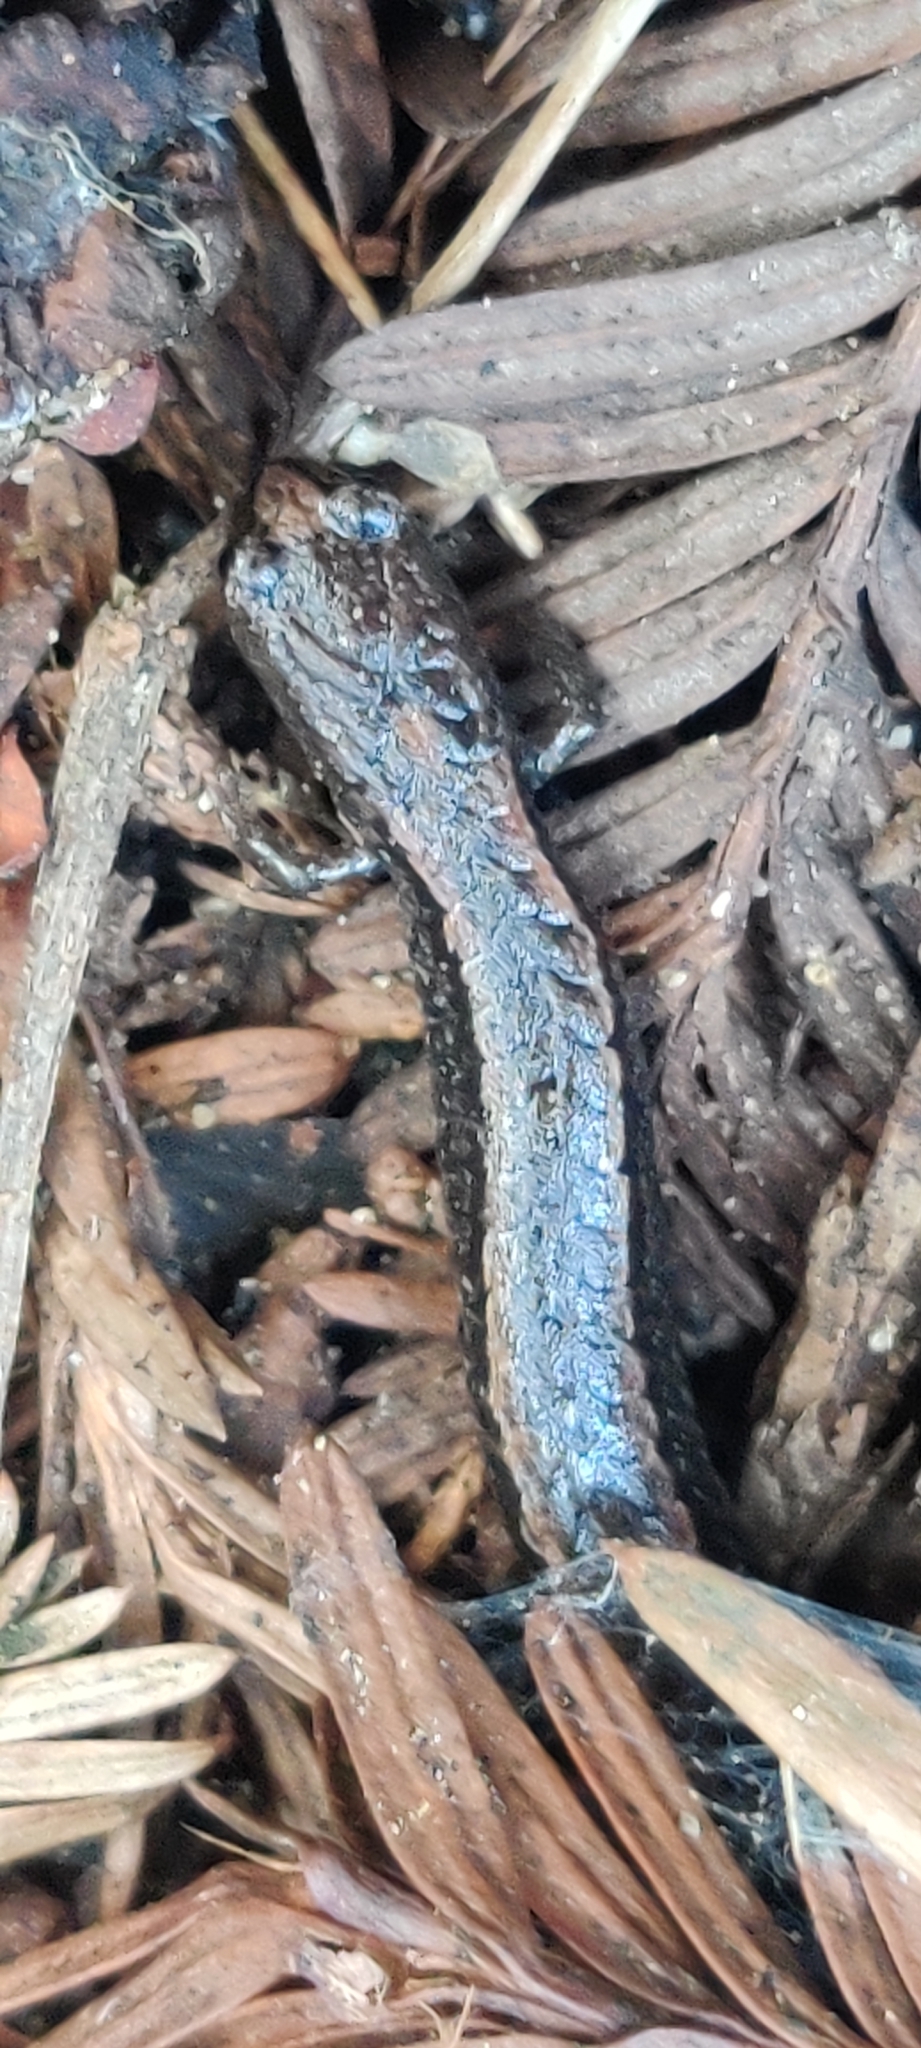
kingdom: Animalia
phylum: Chordata
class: Amphibia
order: Caudata
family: Plethodontidae
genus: Batrachoseps
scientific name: Batrachoseps attenuatus
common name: California slender salamander
